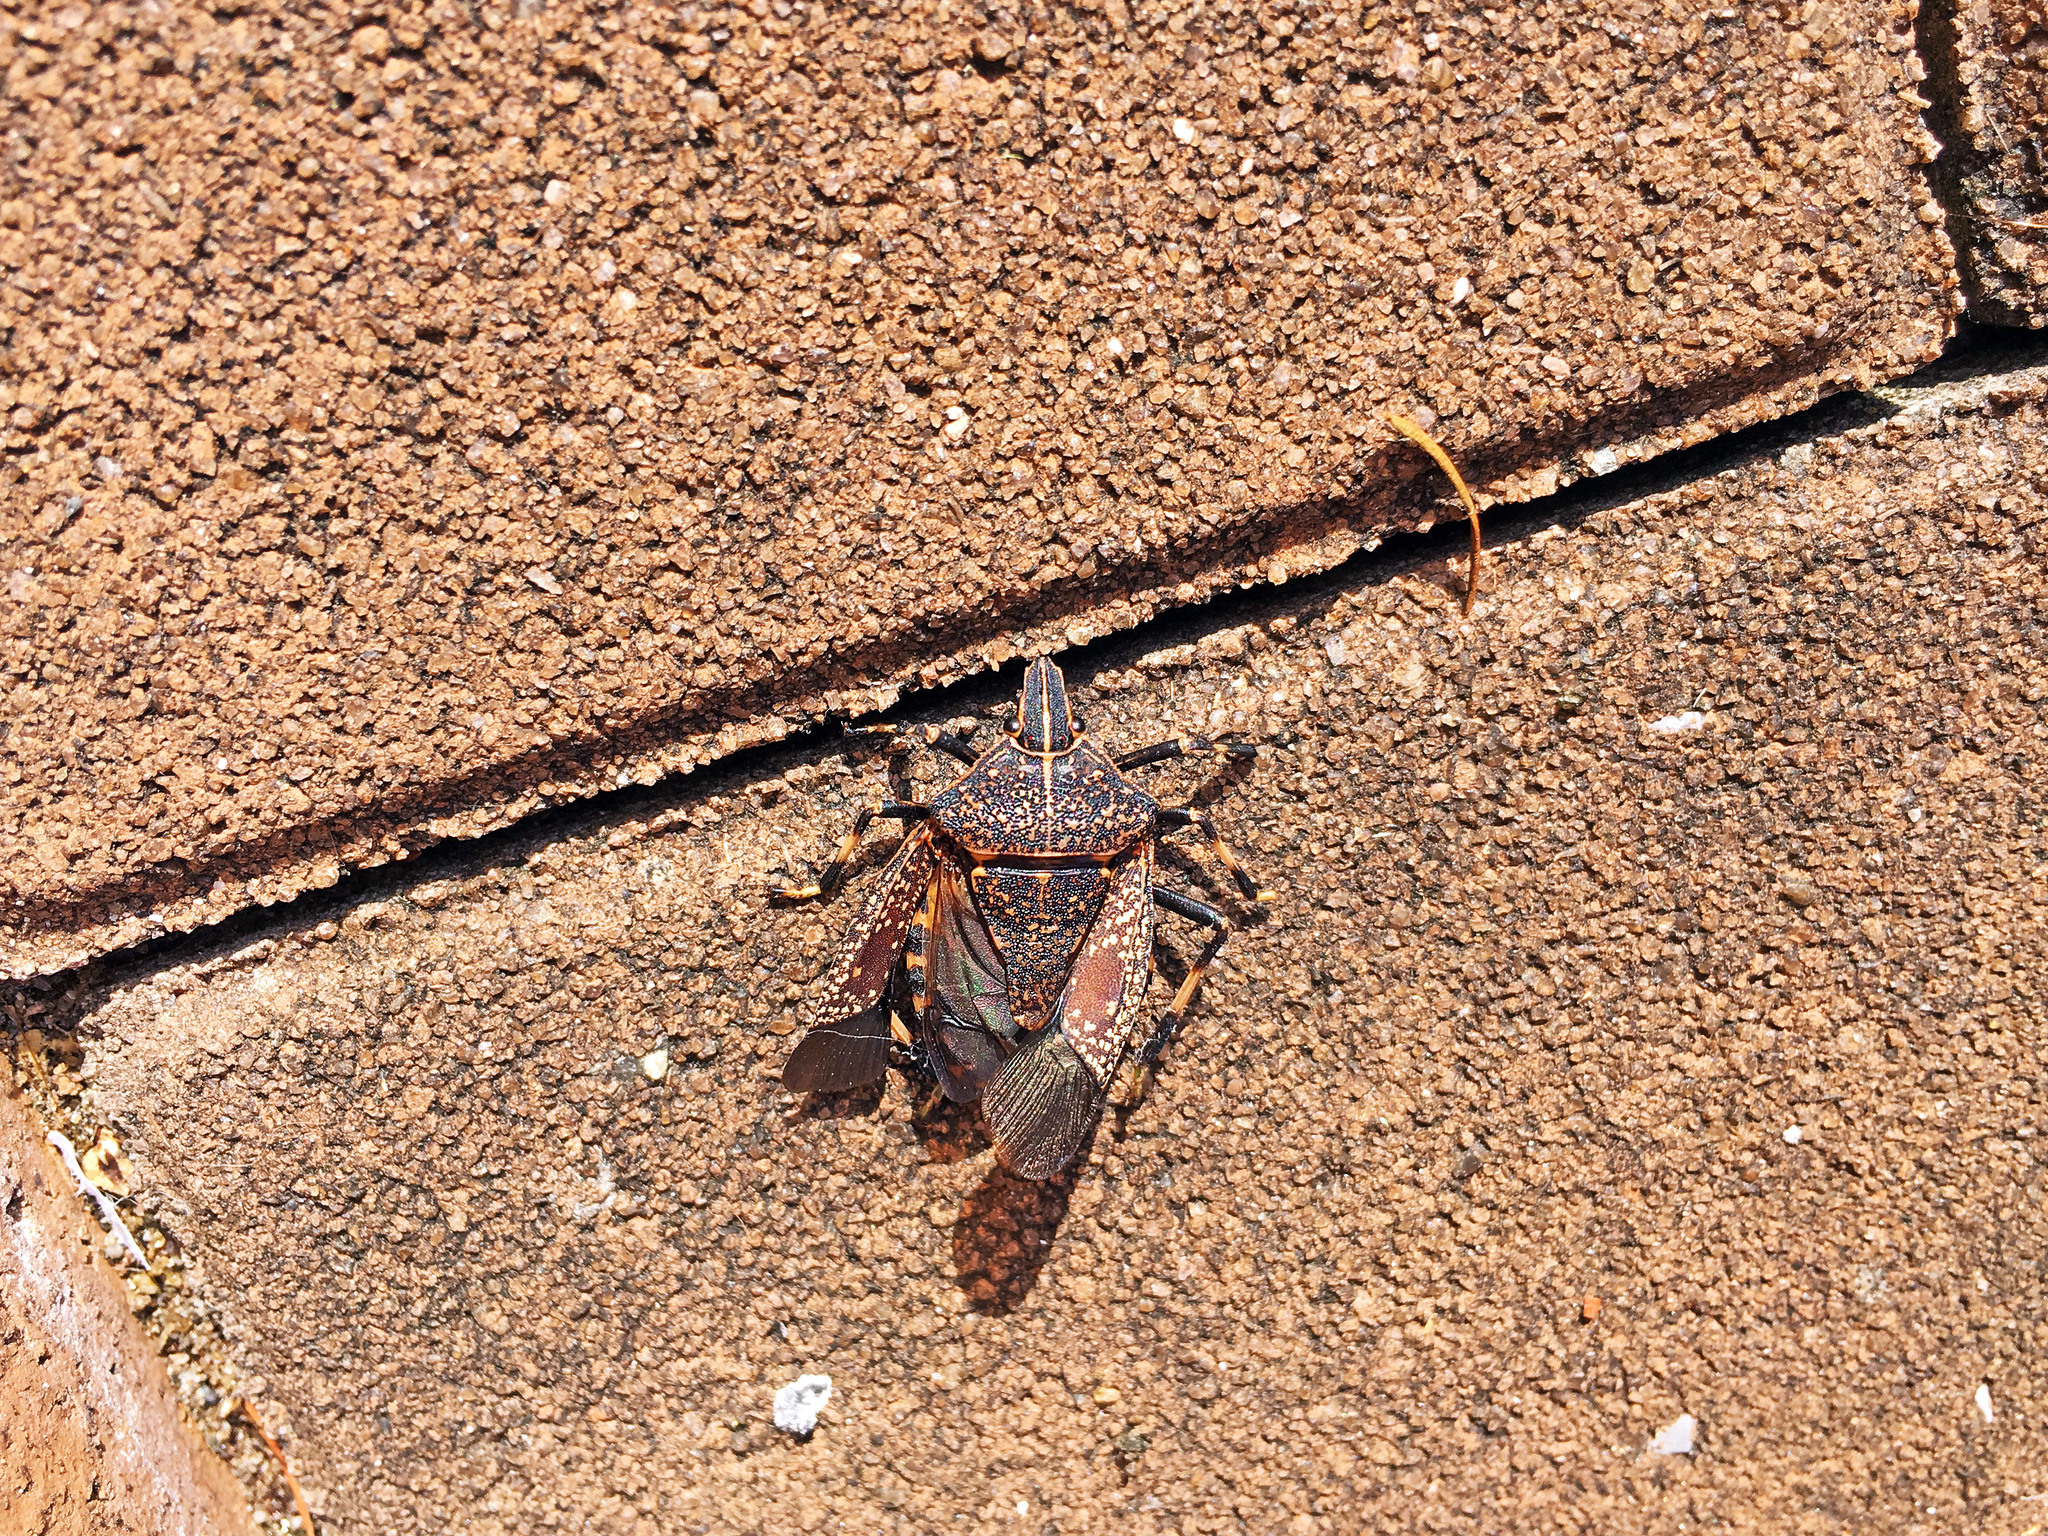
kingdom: Animalia
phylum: Arthropoda
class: Insecta
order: Hemiptera
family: Pentatomidae
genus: Erthesina
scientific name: Erthesina fullo
